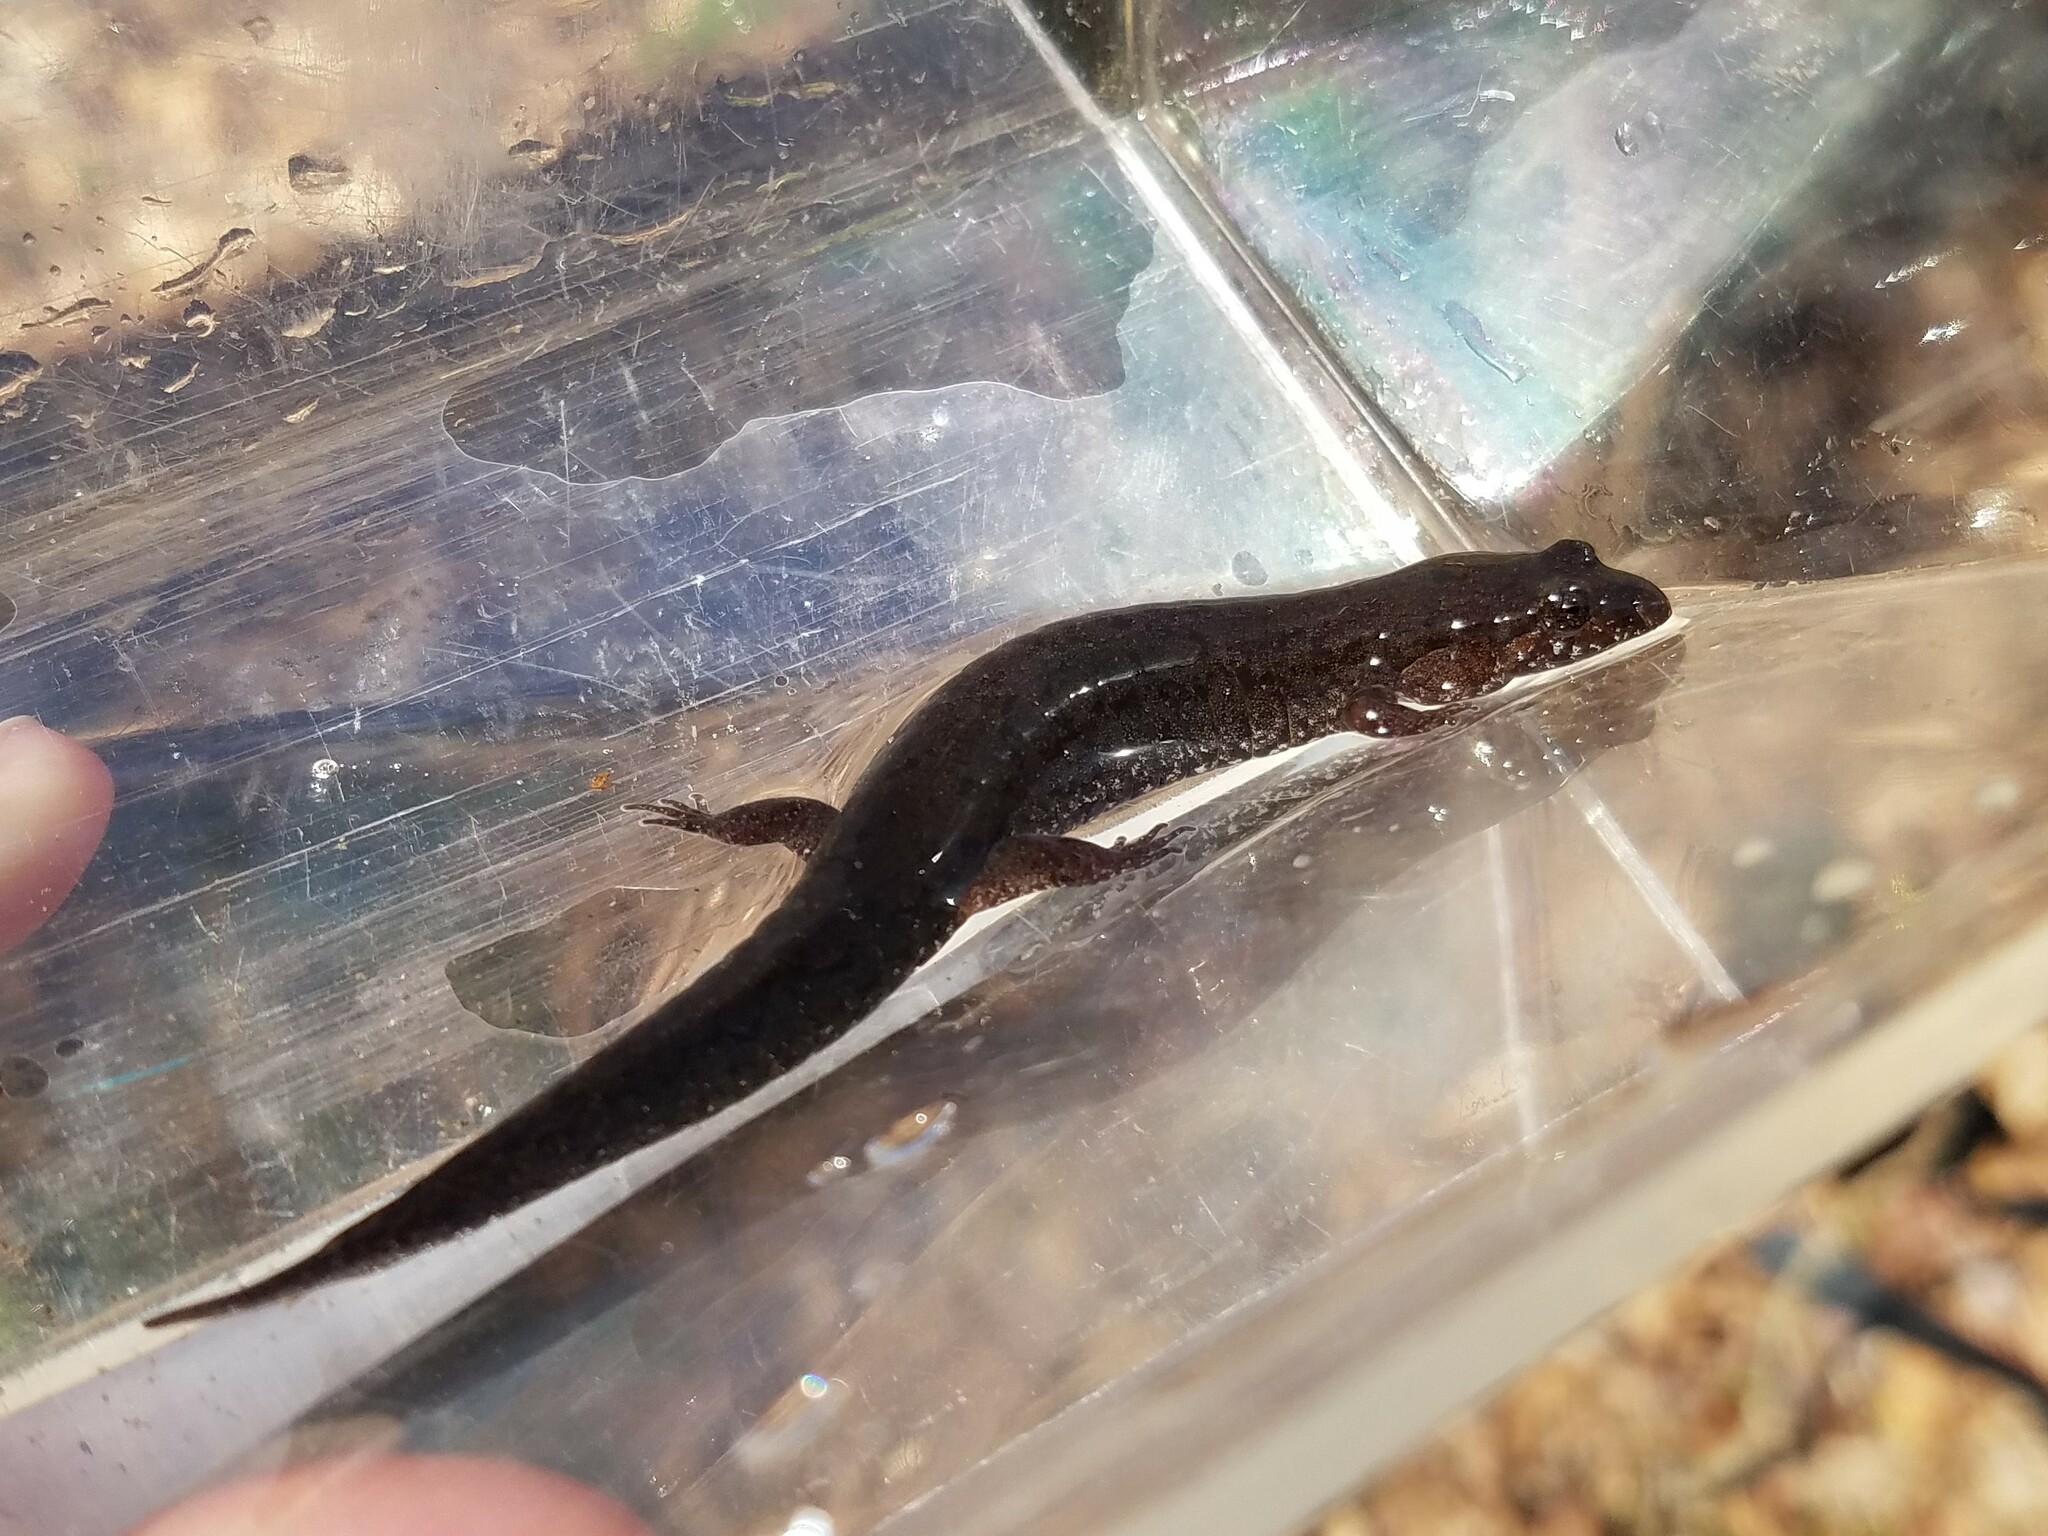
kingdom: Animalia
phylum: Chordata
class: Amphibia
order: Caudata
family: Plethodontidae
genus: Desmognathus
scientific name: Desmognathus conanti
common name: Spotted dusky salamander
